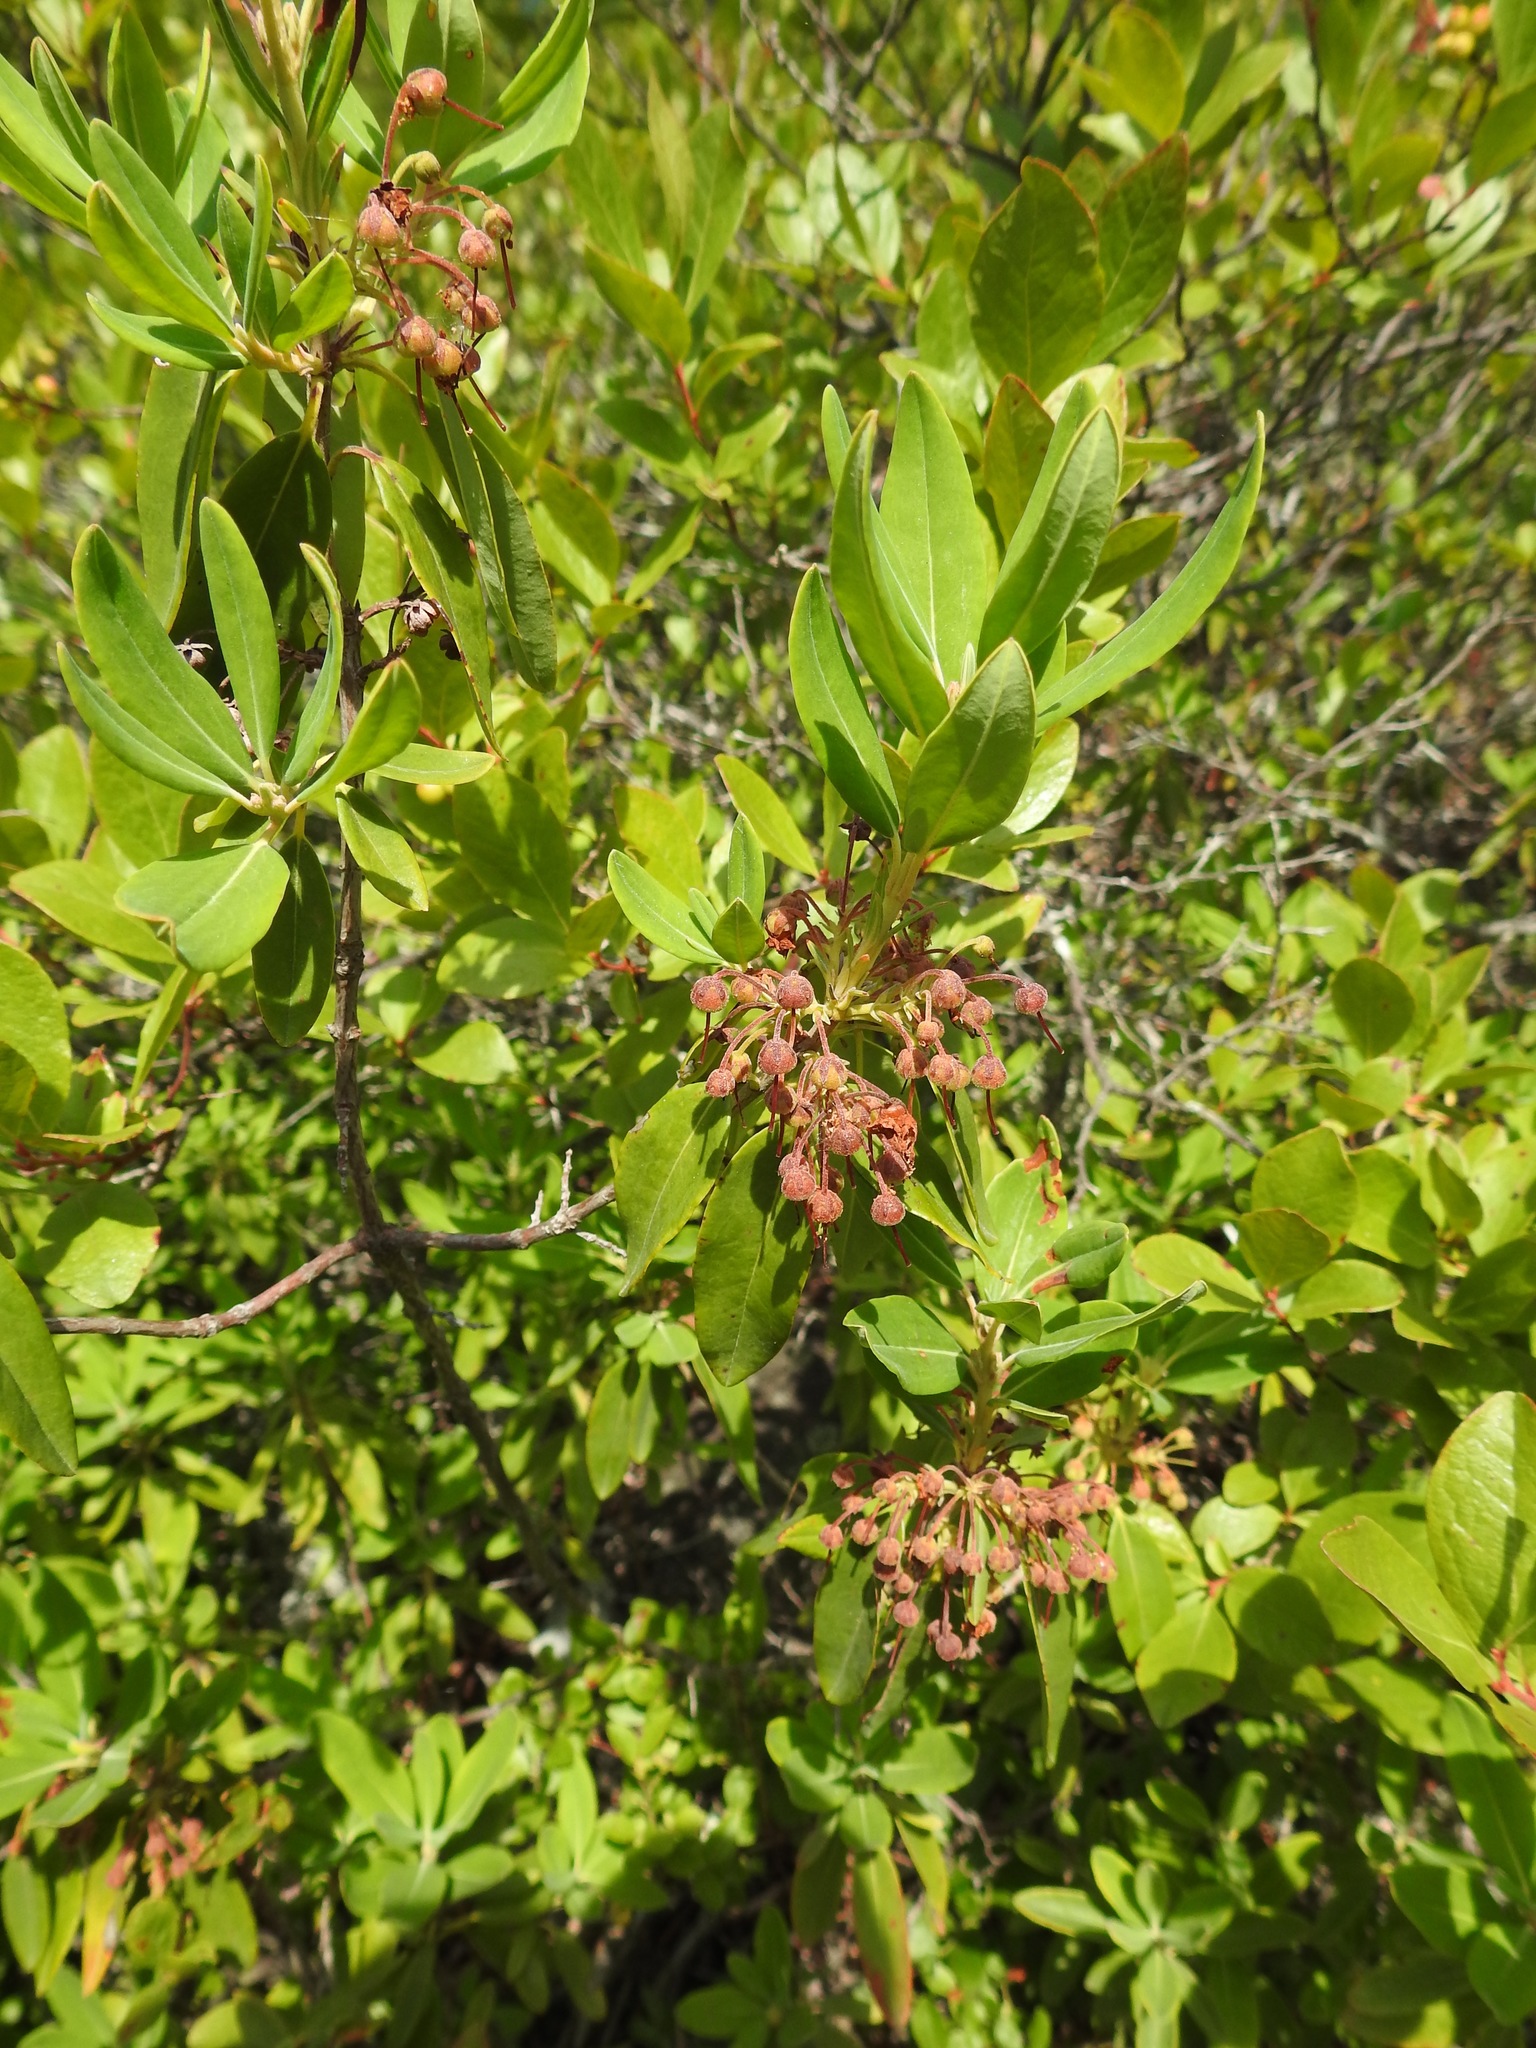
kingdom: Plantae
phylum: Tracheophyta
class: Magnoliopsida
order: Ericales
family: Ericaceae
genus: Kalmia
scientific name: Kalmia angustifolia
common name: Sheep-laurel
